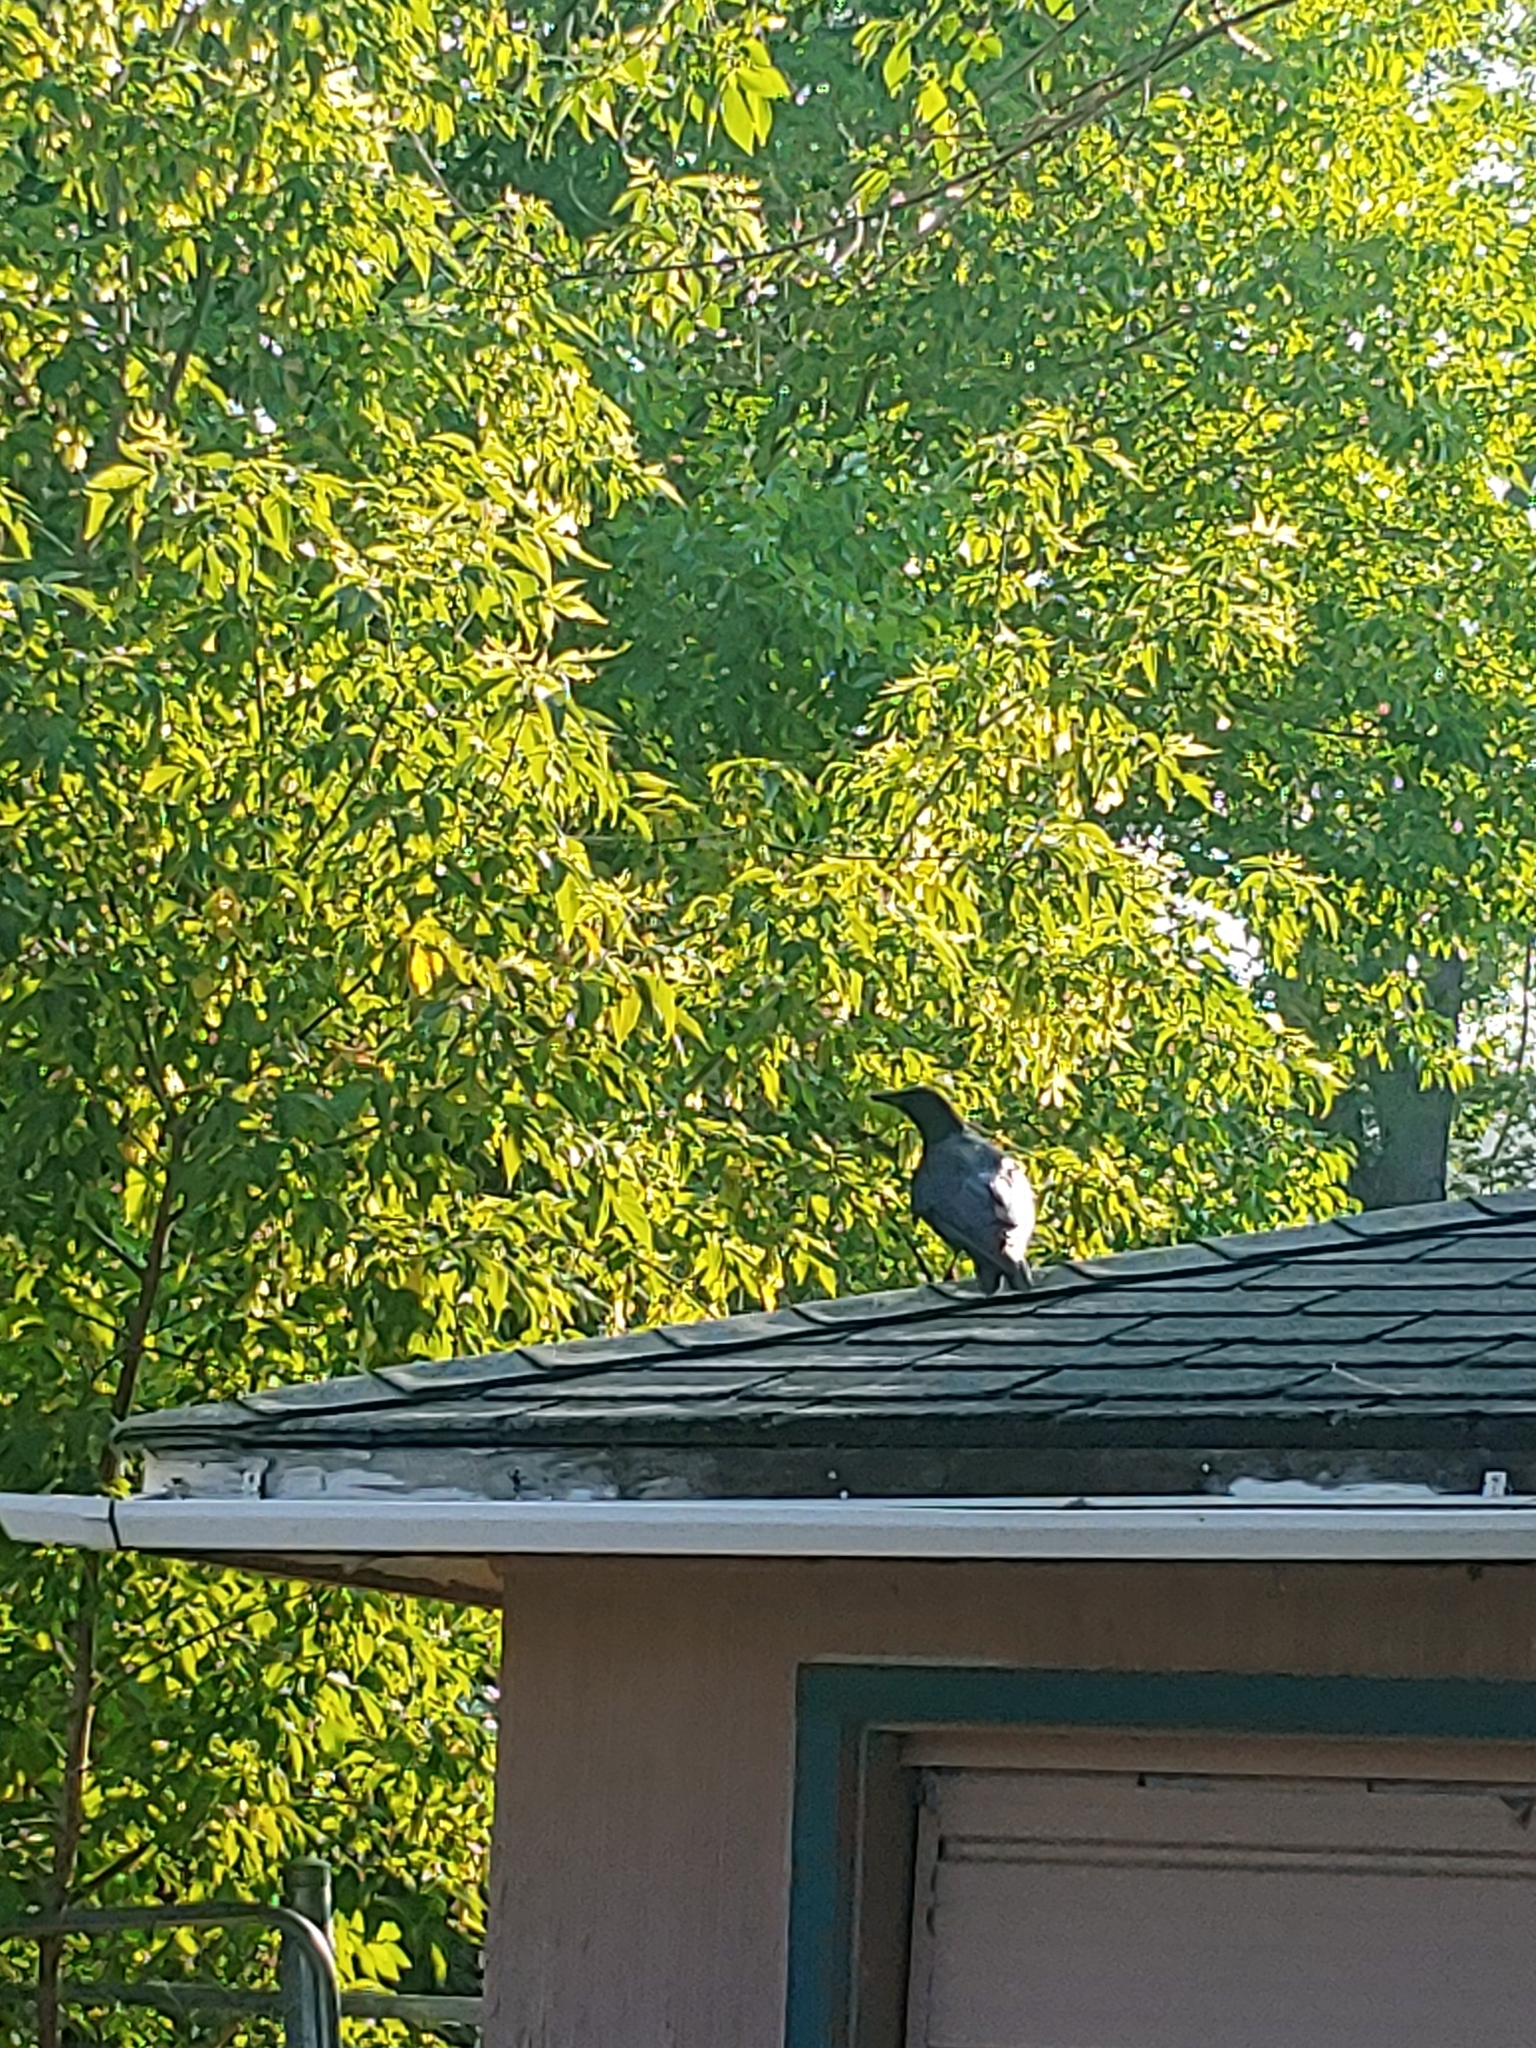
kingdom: Animalia
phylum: Chordata
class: Aves
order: Passeriformes
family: Corvidae
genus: Corvus
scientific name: Corvus brachyrhynchos
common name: American crow
